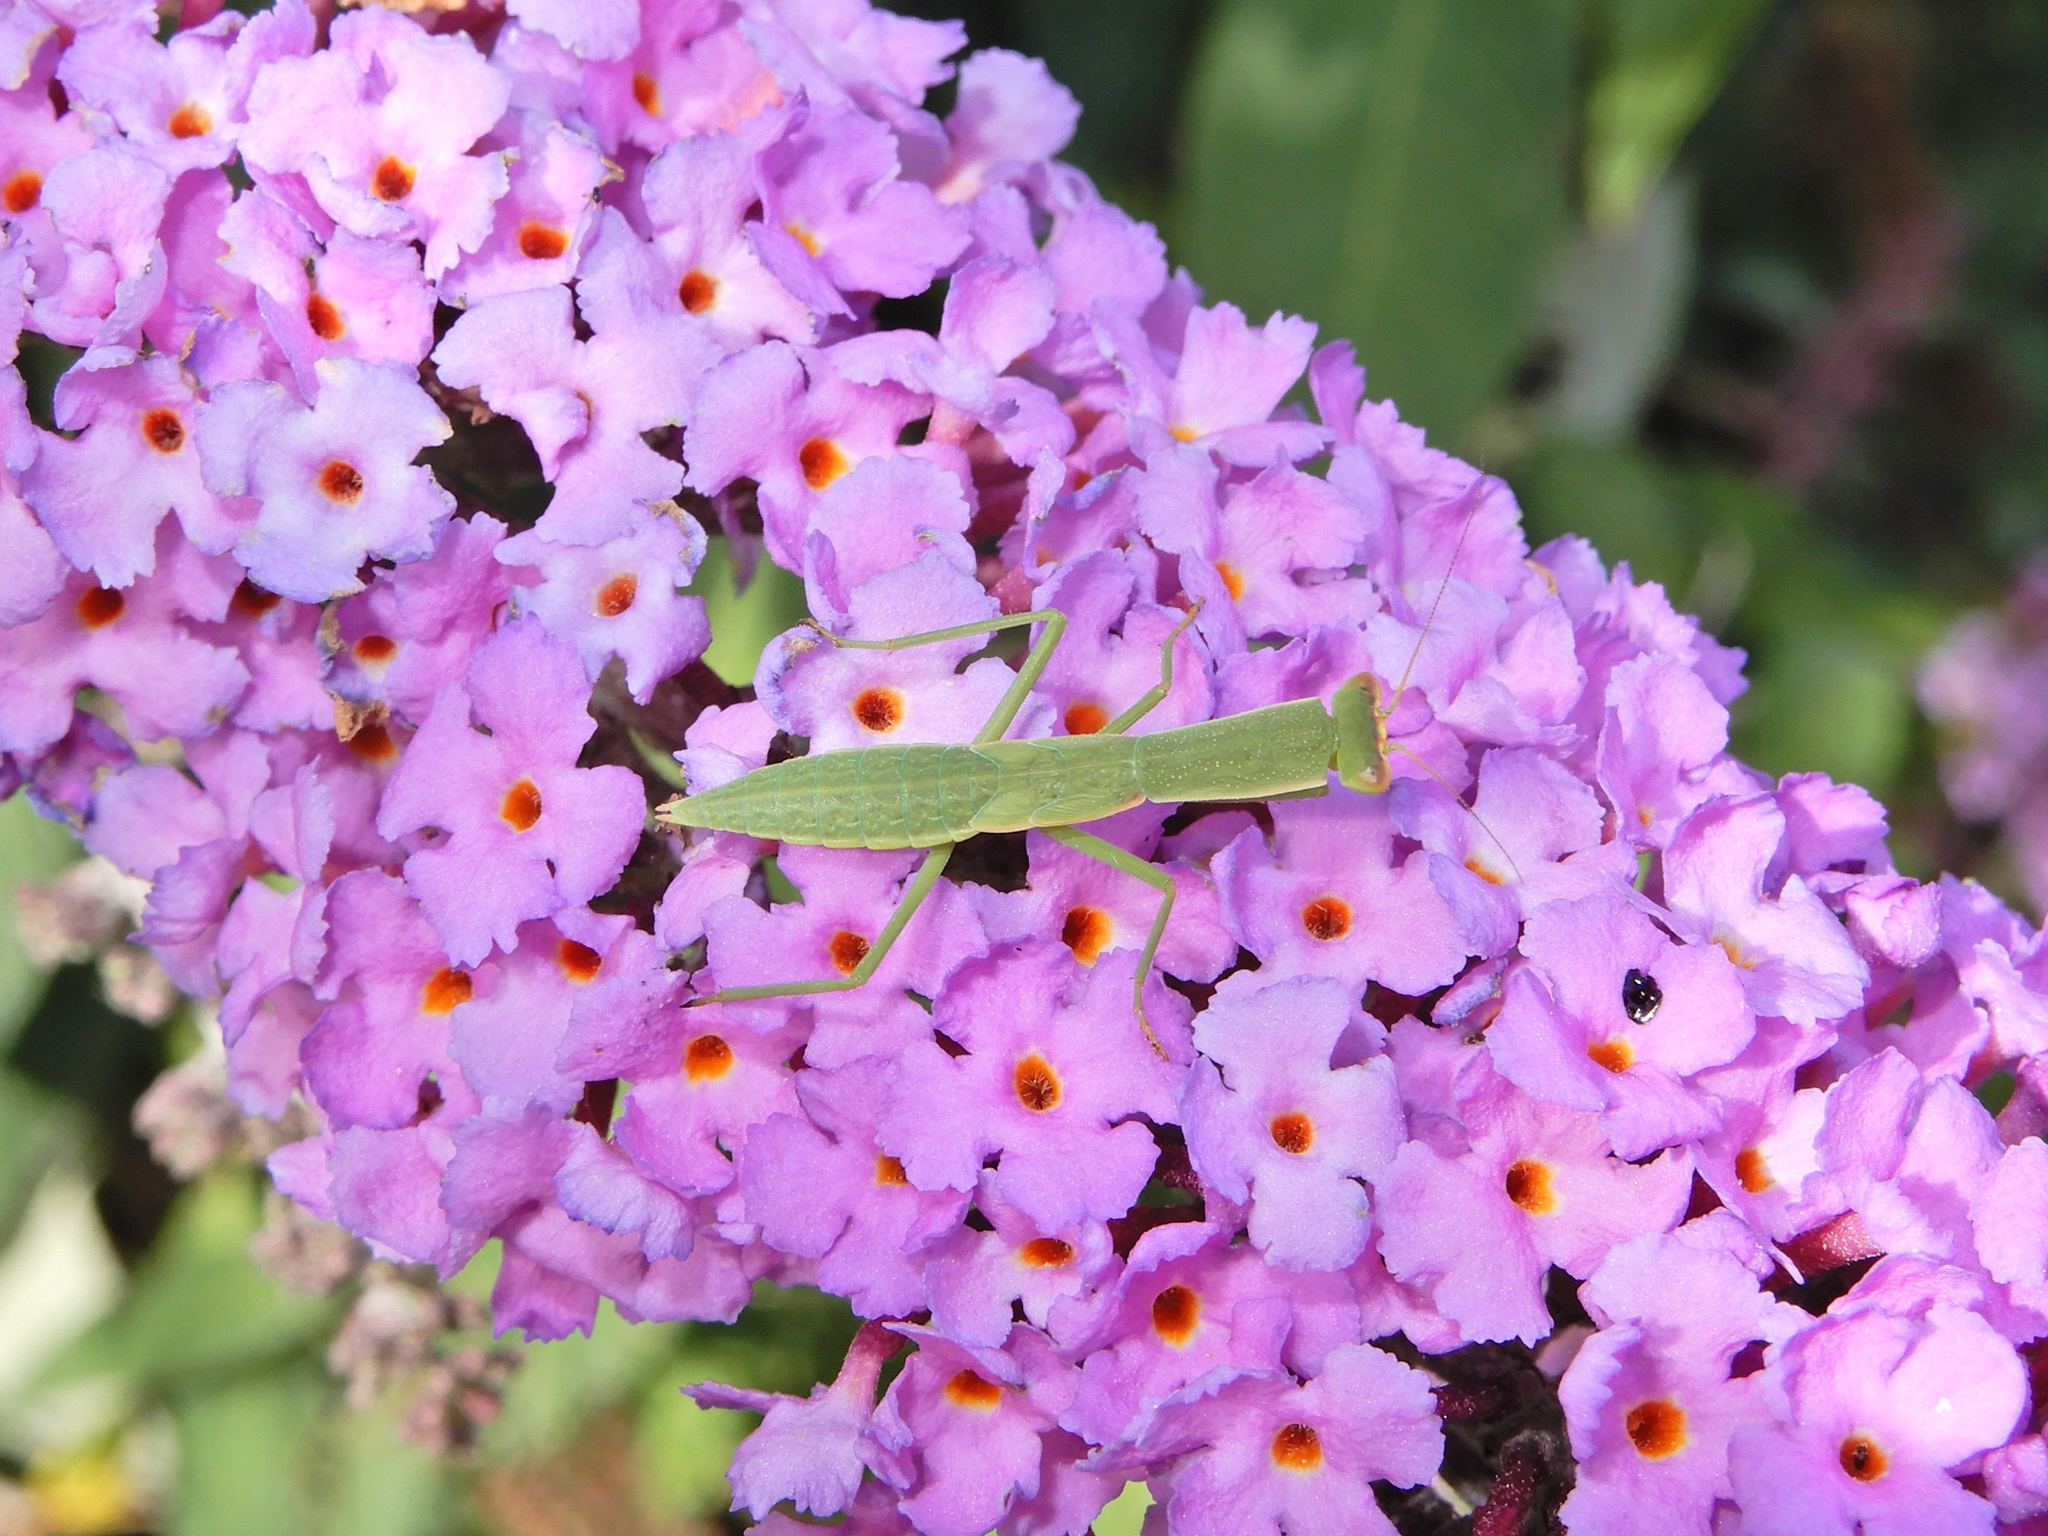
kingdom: Animalia
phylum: Arthropoda
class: Insecta
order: Mantodea
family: Mantidae
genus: Orthodera
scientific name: Orthodera novaezealandiae
